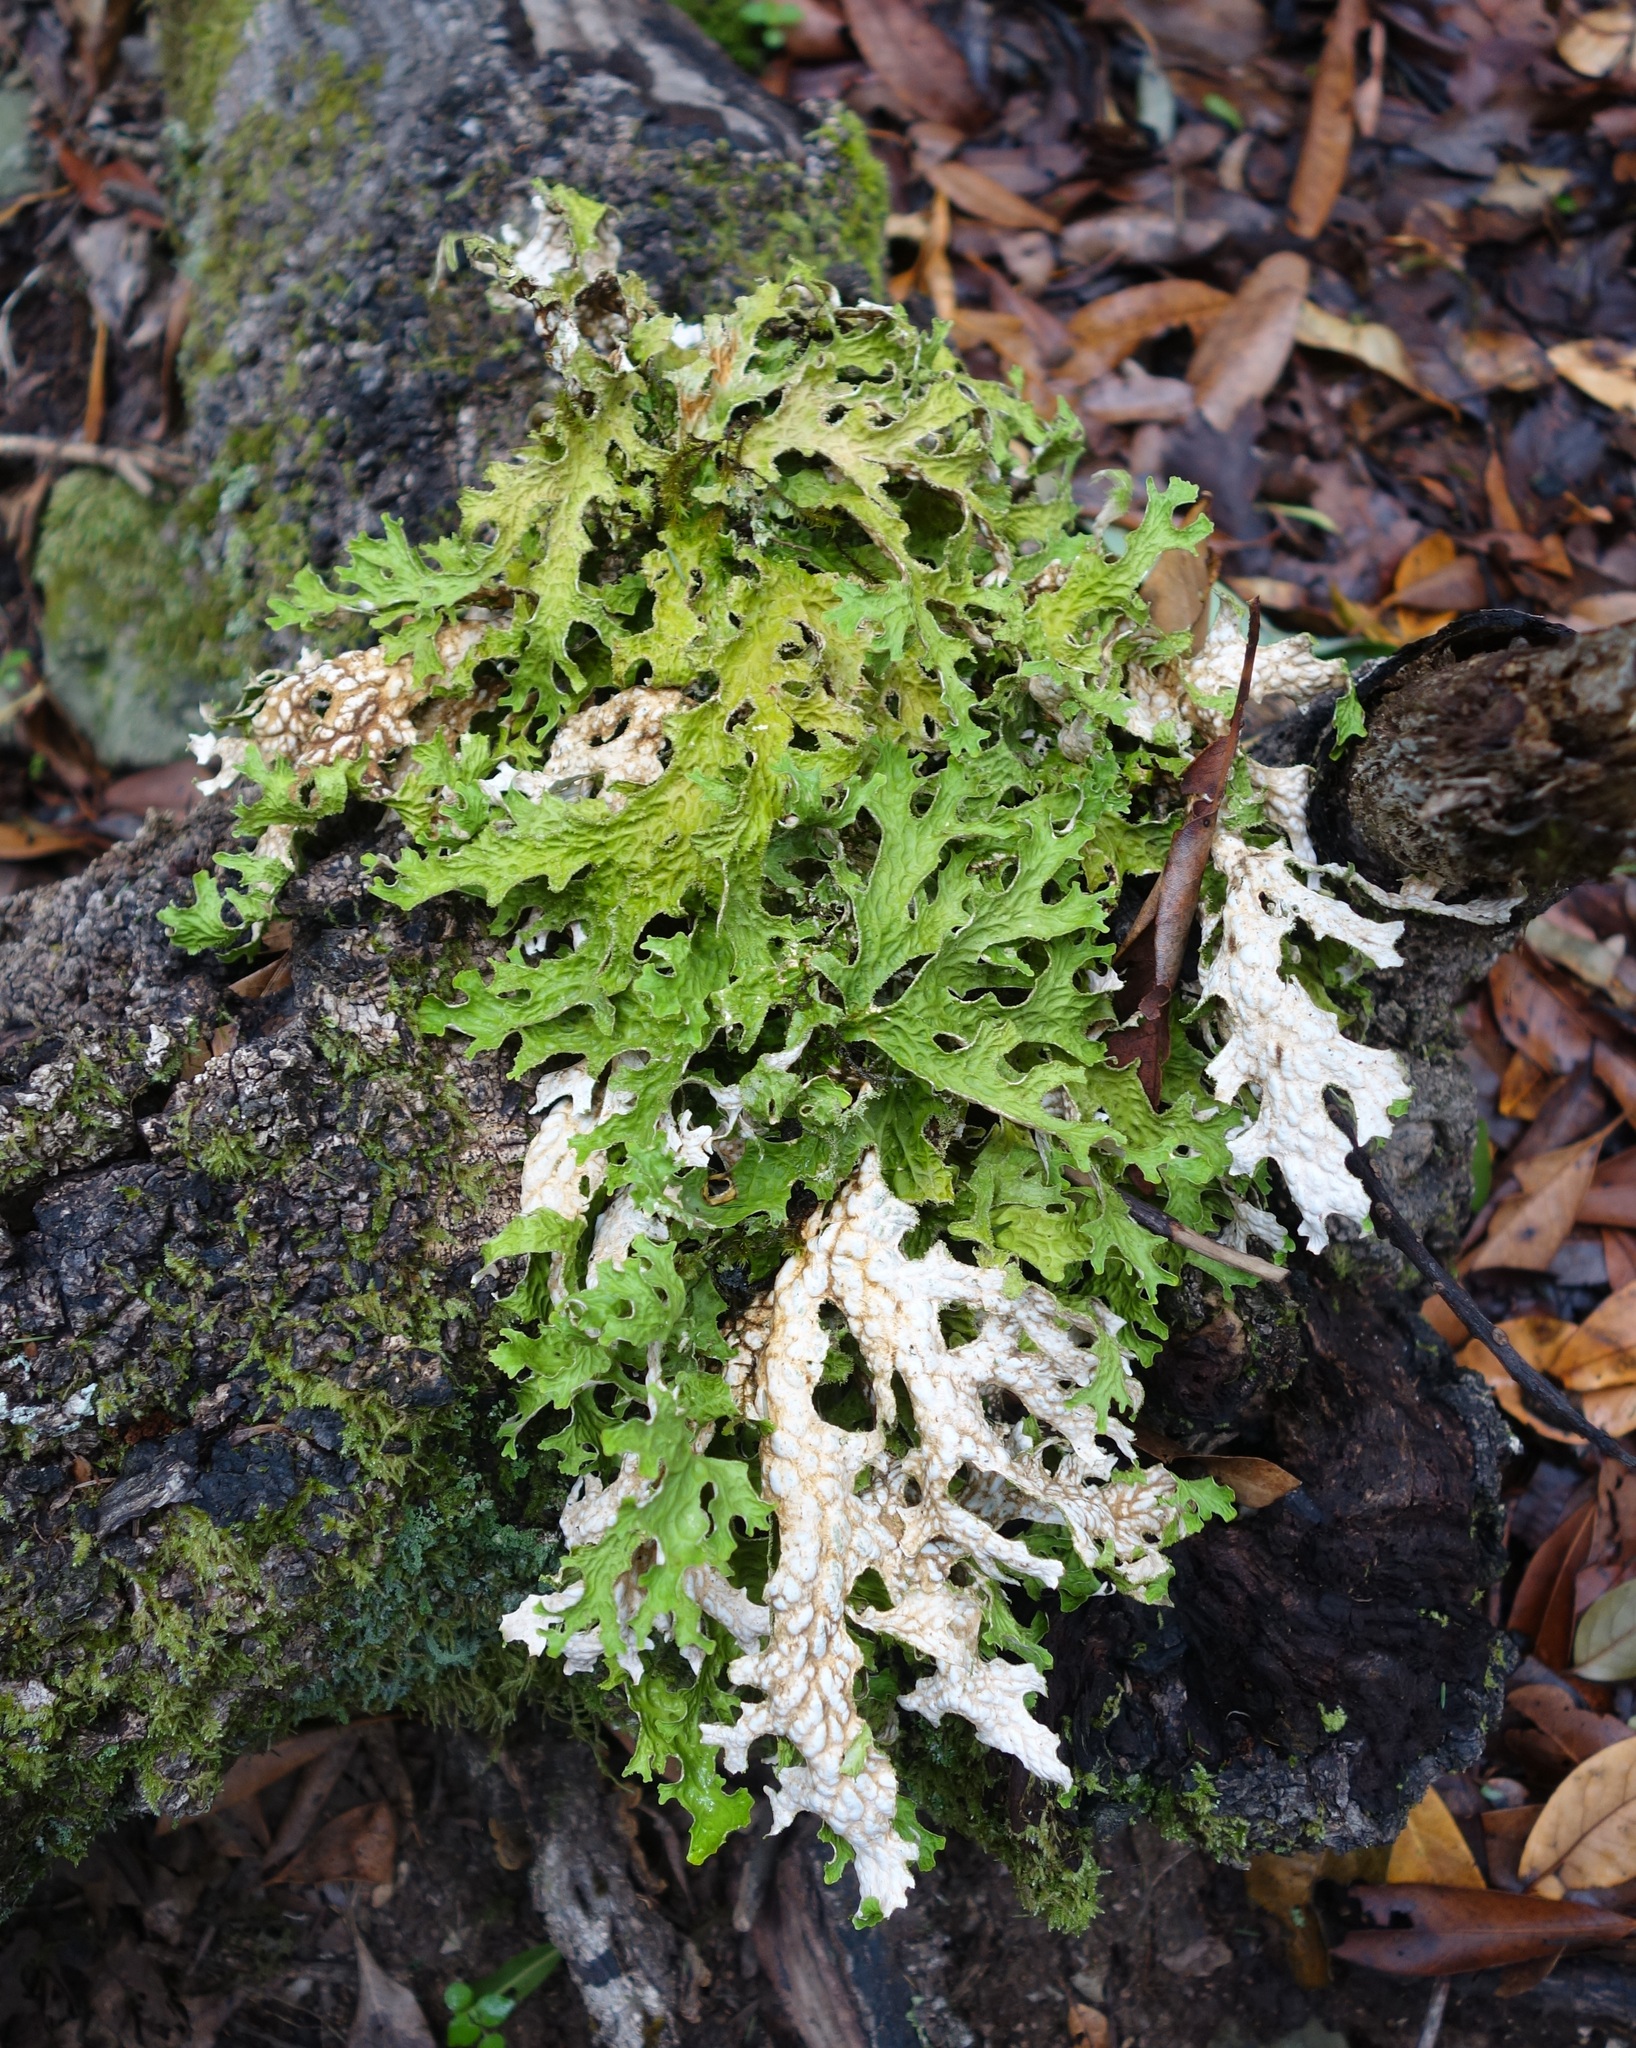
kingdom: Fungi
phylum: Ascomycota
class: Lecanoromycetes
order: Peltigerales
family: Lobariaceae
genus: Lobaria
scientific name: Lobaria pulmonaria
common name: Lungwort
